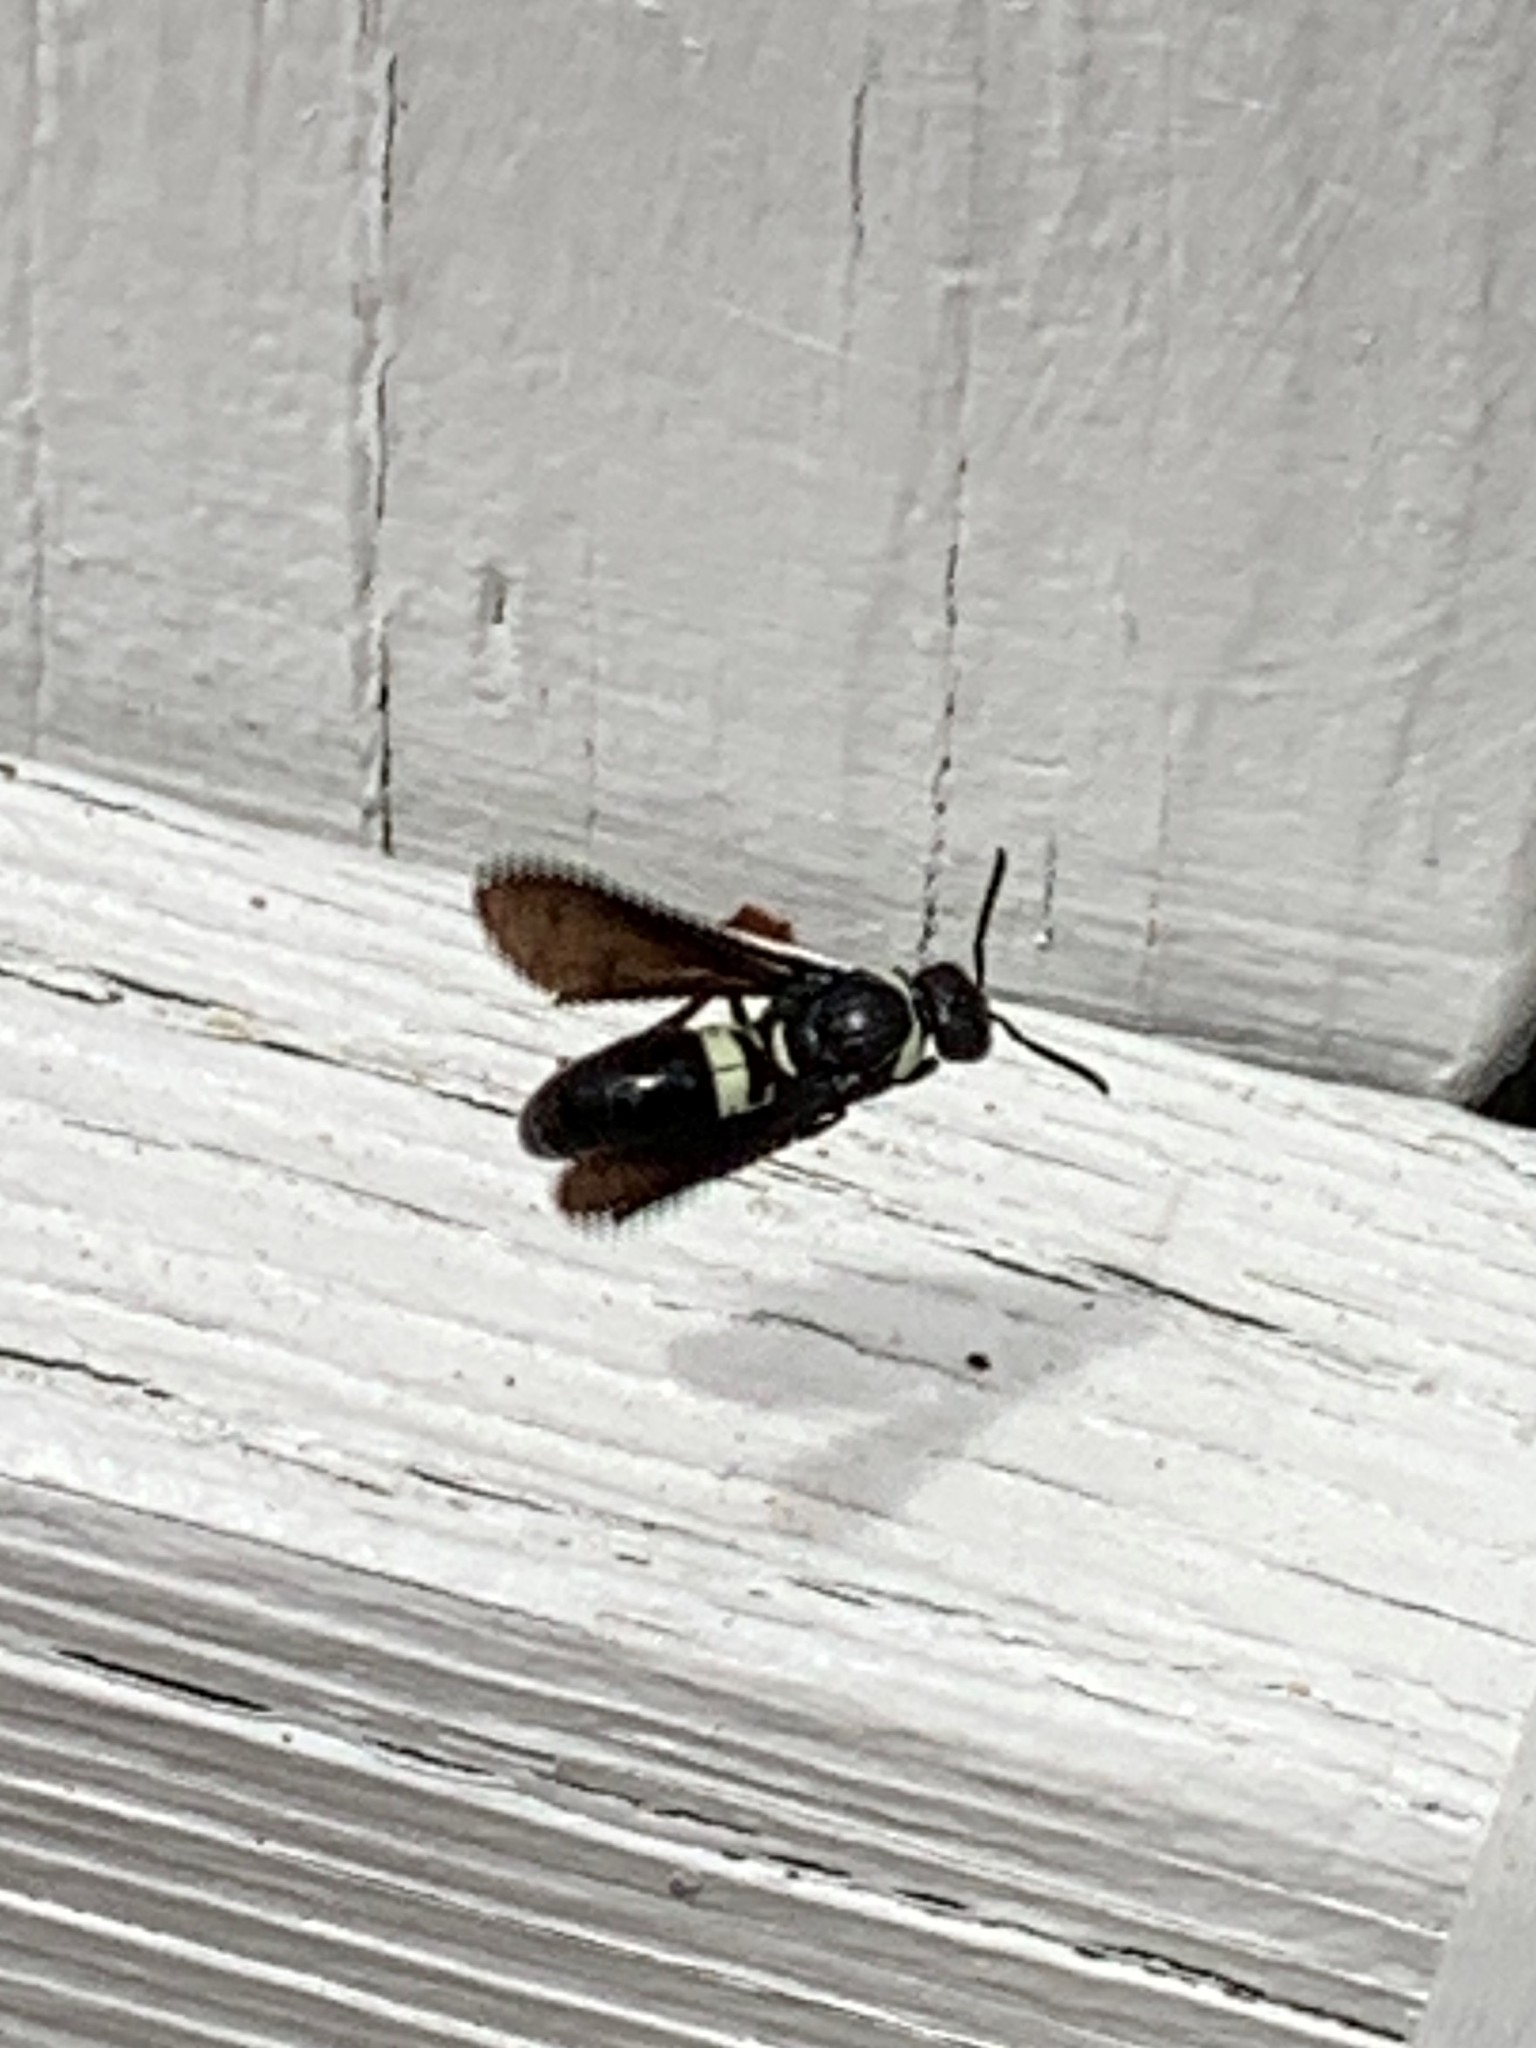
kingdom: Animalia
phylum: Arthropoda
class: Insecta
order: Hymenoptera
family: Eumenidae
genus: Monobia
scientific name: Monobia quadridens
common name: Four-toothed mason wasp
